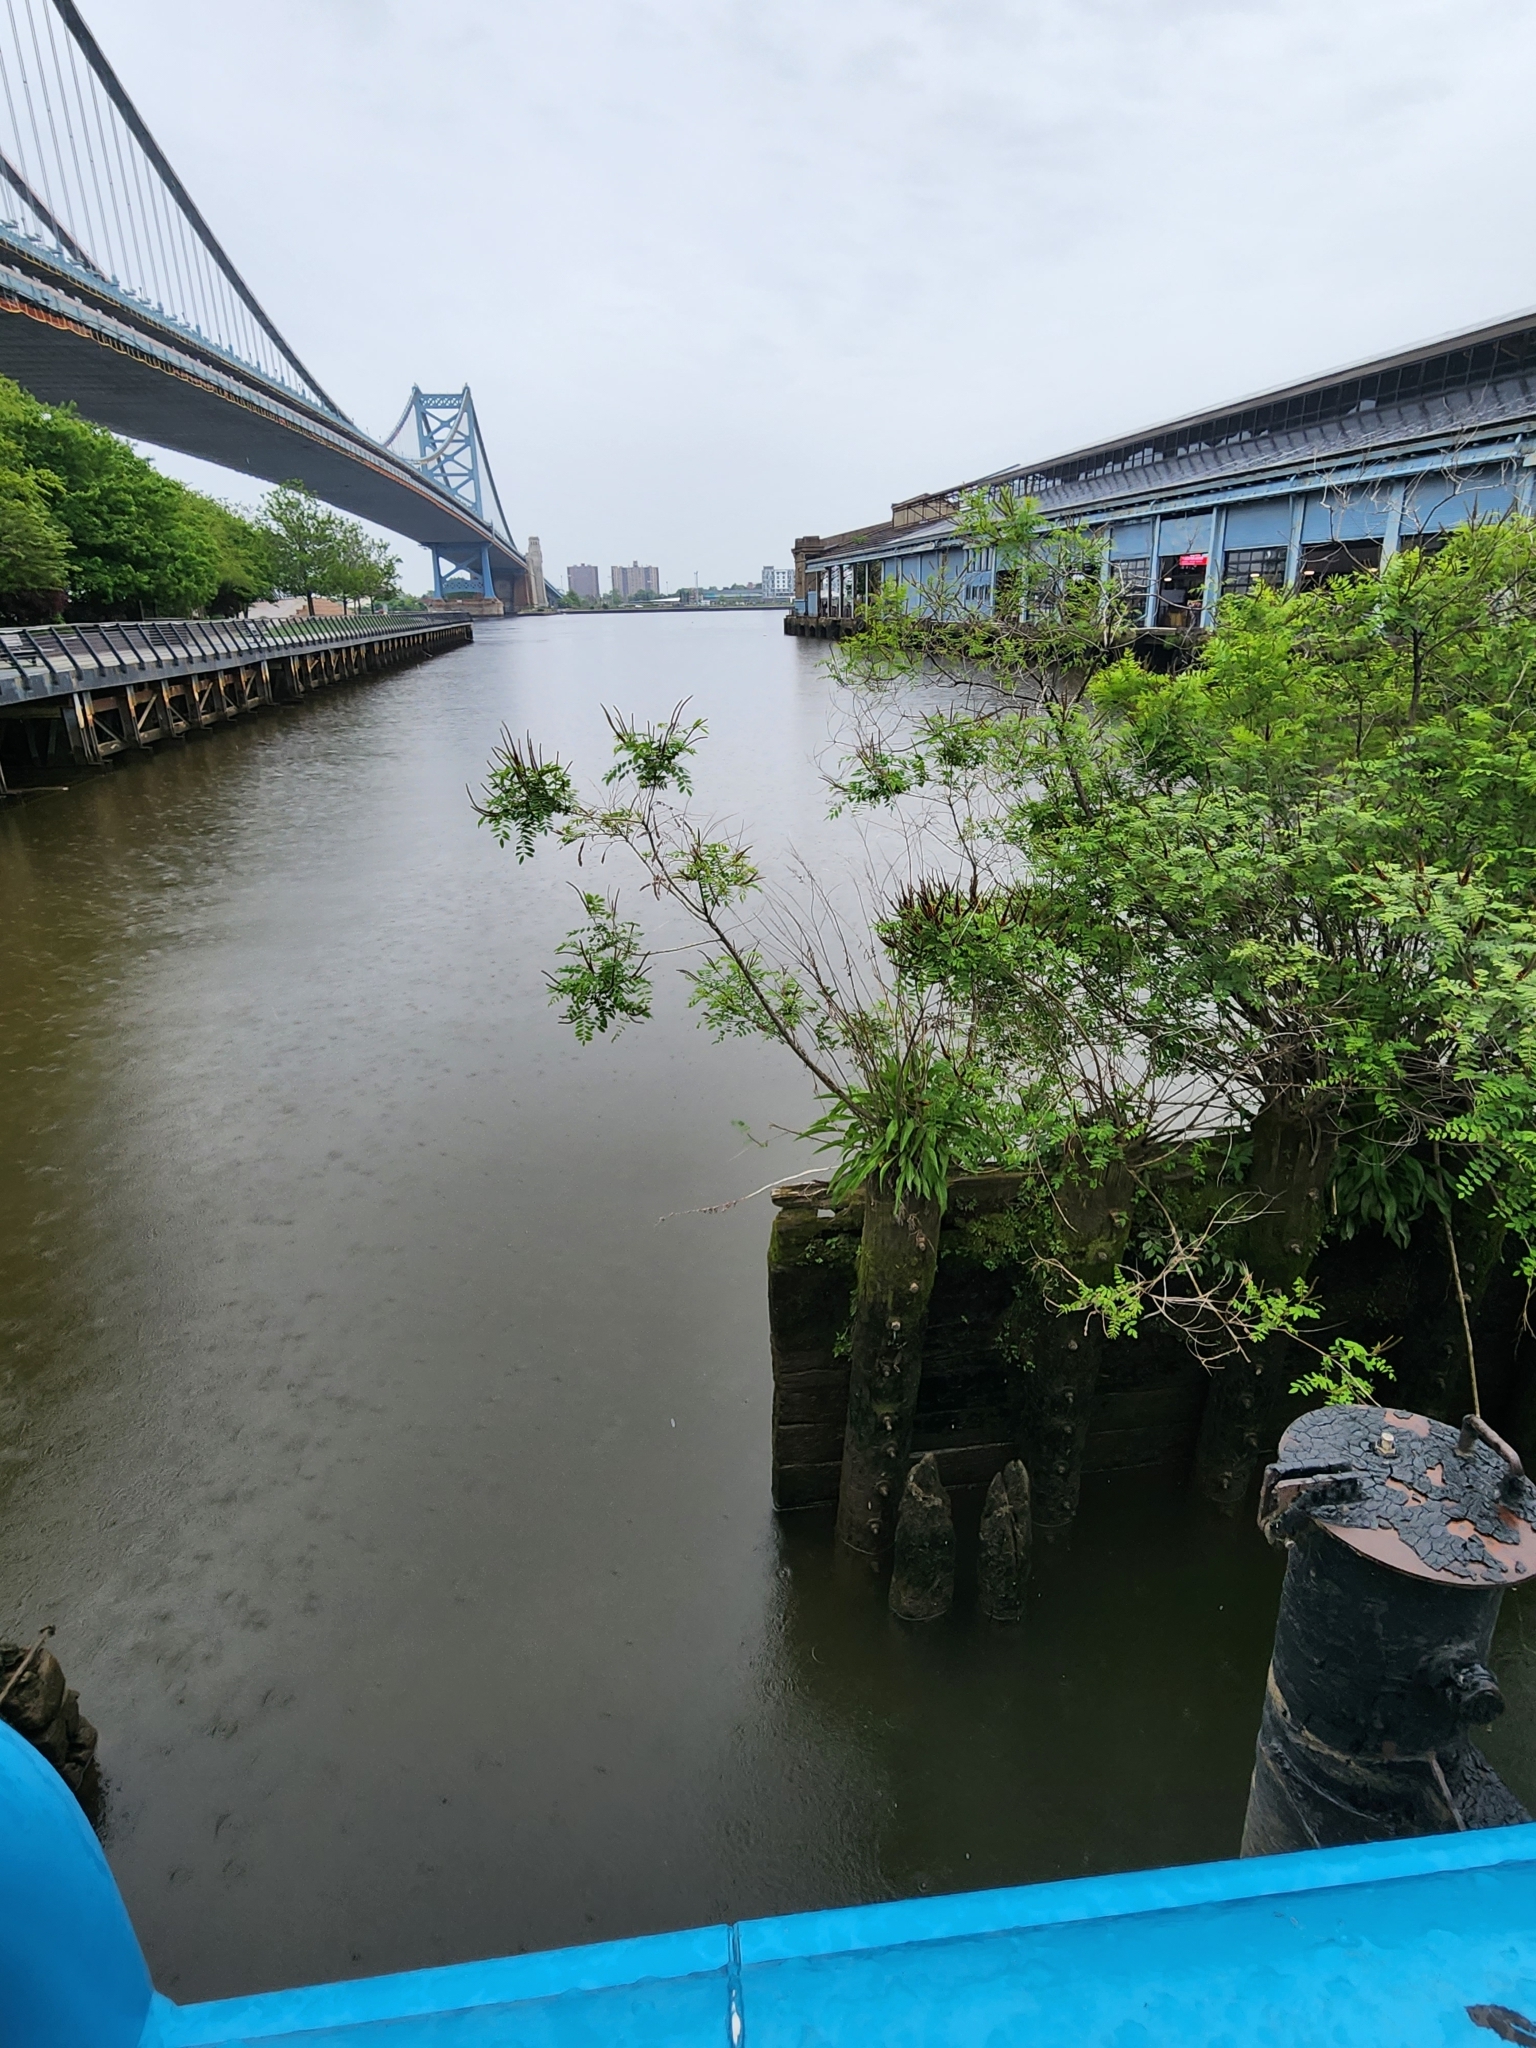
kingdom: Plantae
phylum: Tracheophyta
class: Magnoliopsida
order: Fabales
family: Fabaceae
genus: Amorpha
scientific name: Amorpha fruticosa
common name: False indigo
